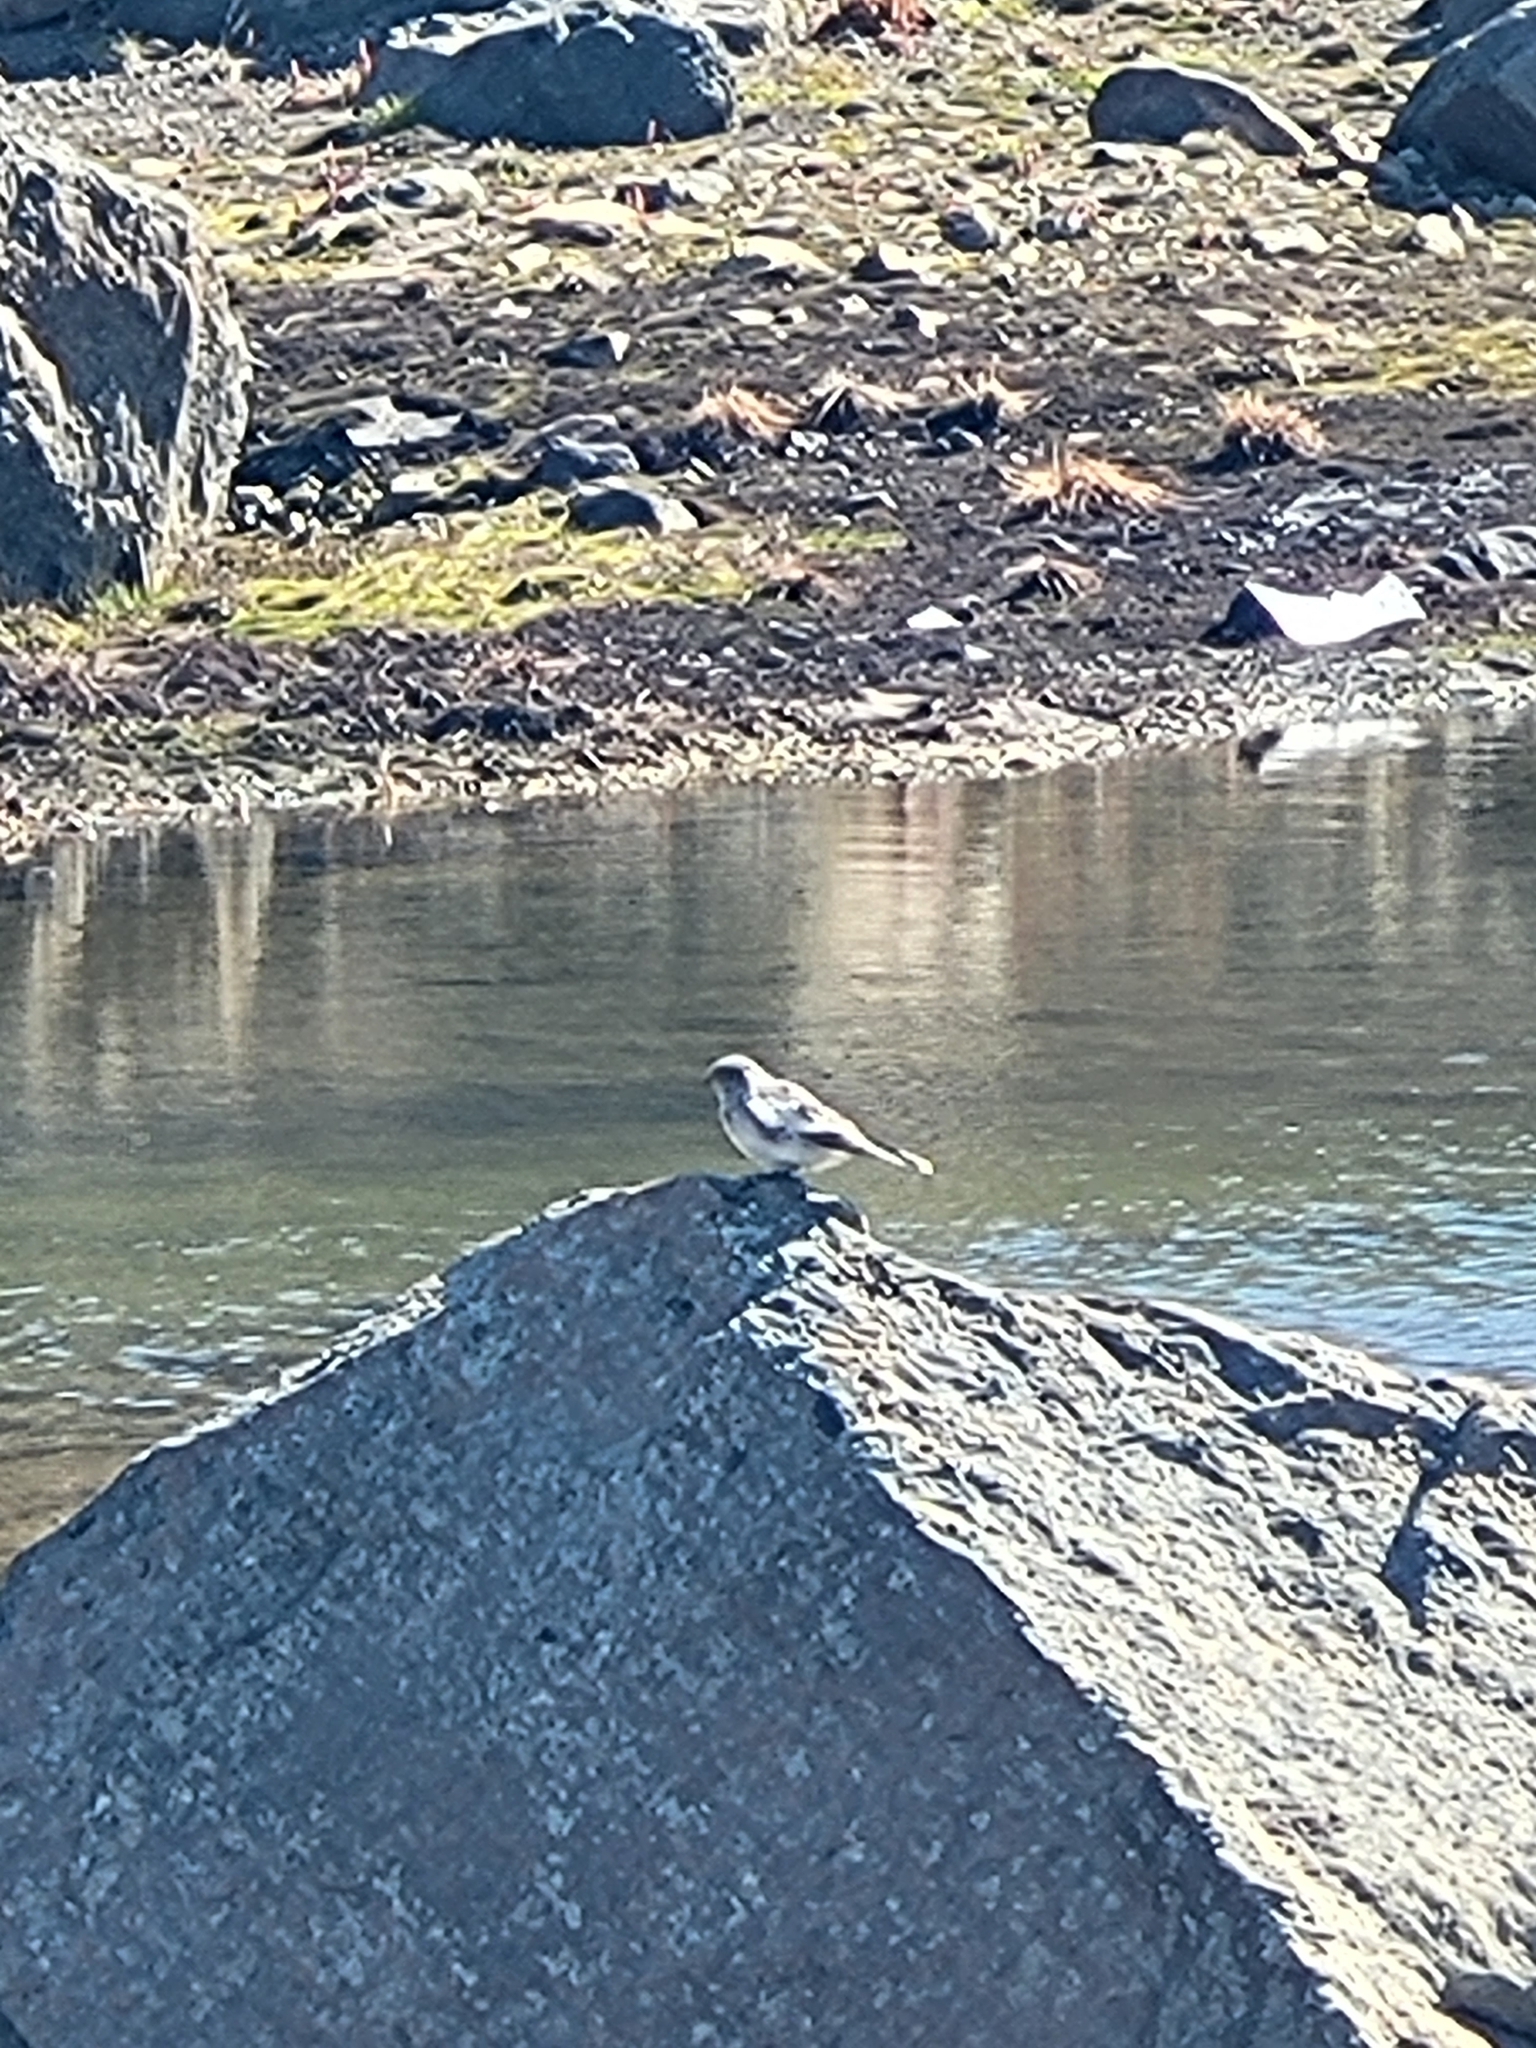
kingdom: Animalia
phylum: Chordata
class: Aves
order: Passeriformes
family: Calcariidae
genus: Plectrophenax
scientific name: Plectrophenax nivalis
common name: Snow bunting
